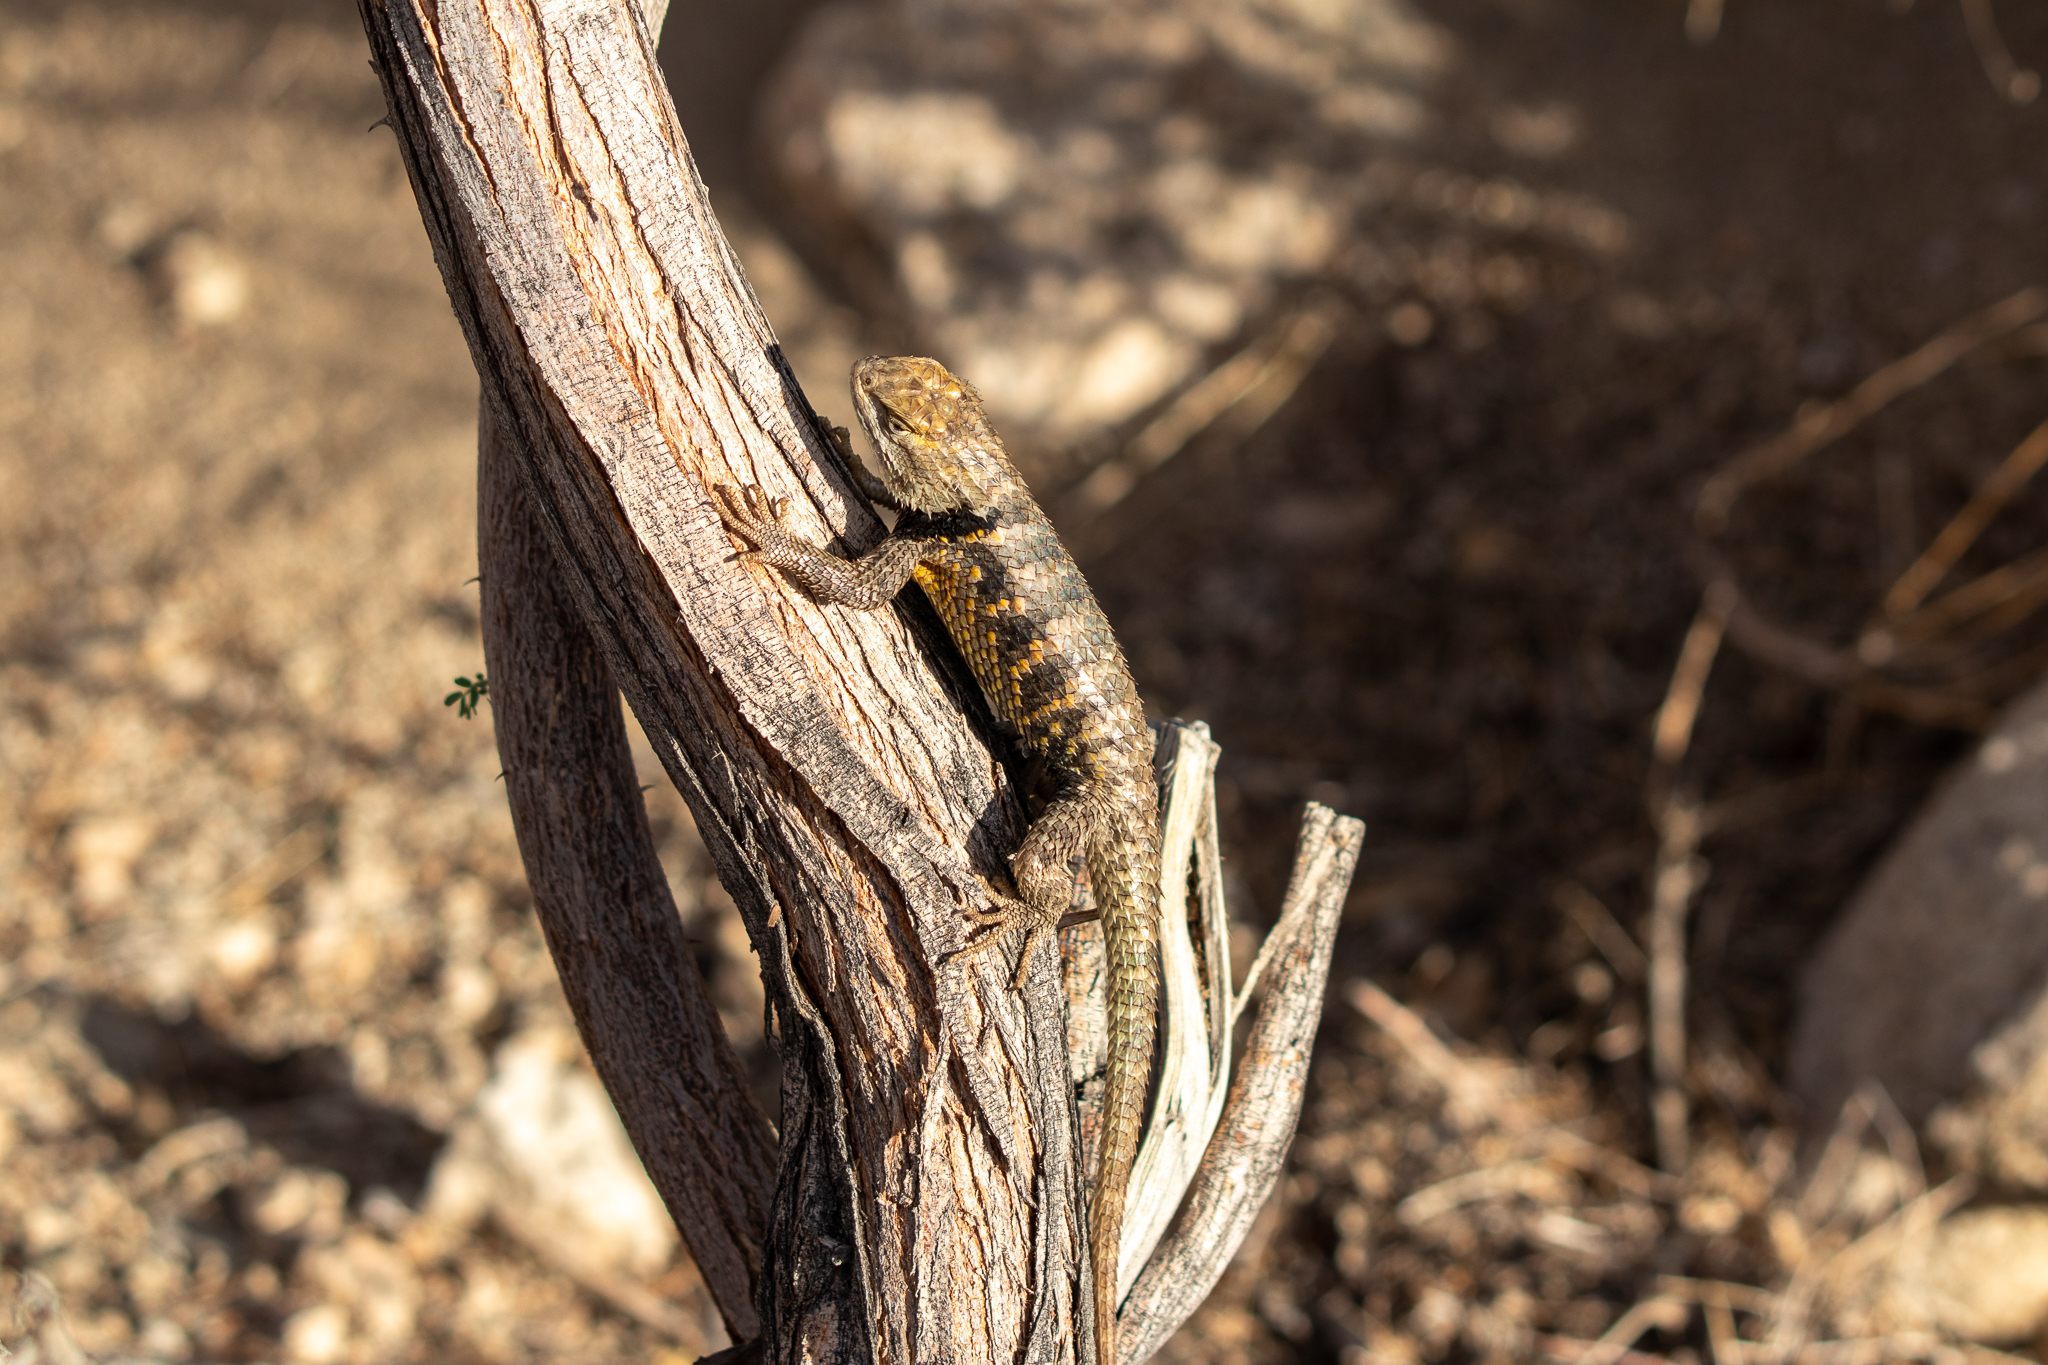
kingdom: Animalia
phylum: Chordata
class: Squamata
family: Phrynosomatidae
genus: Sceloporus
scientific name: Sceloporus magister
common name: Desert spiny lizard
